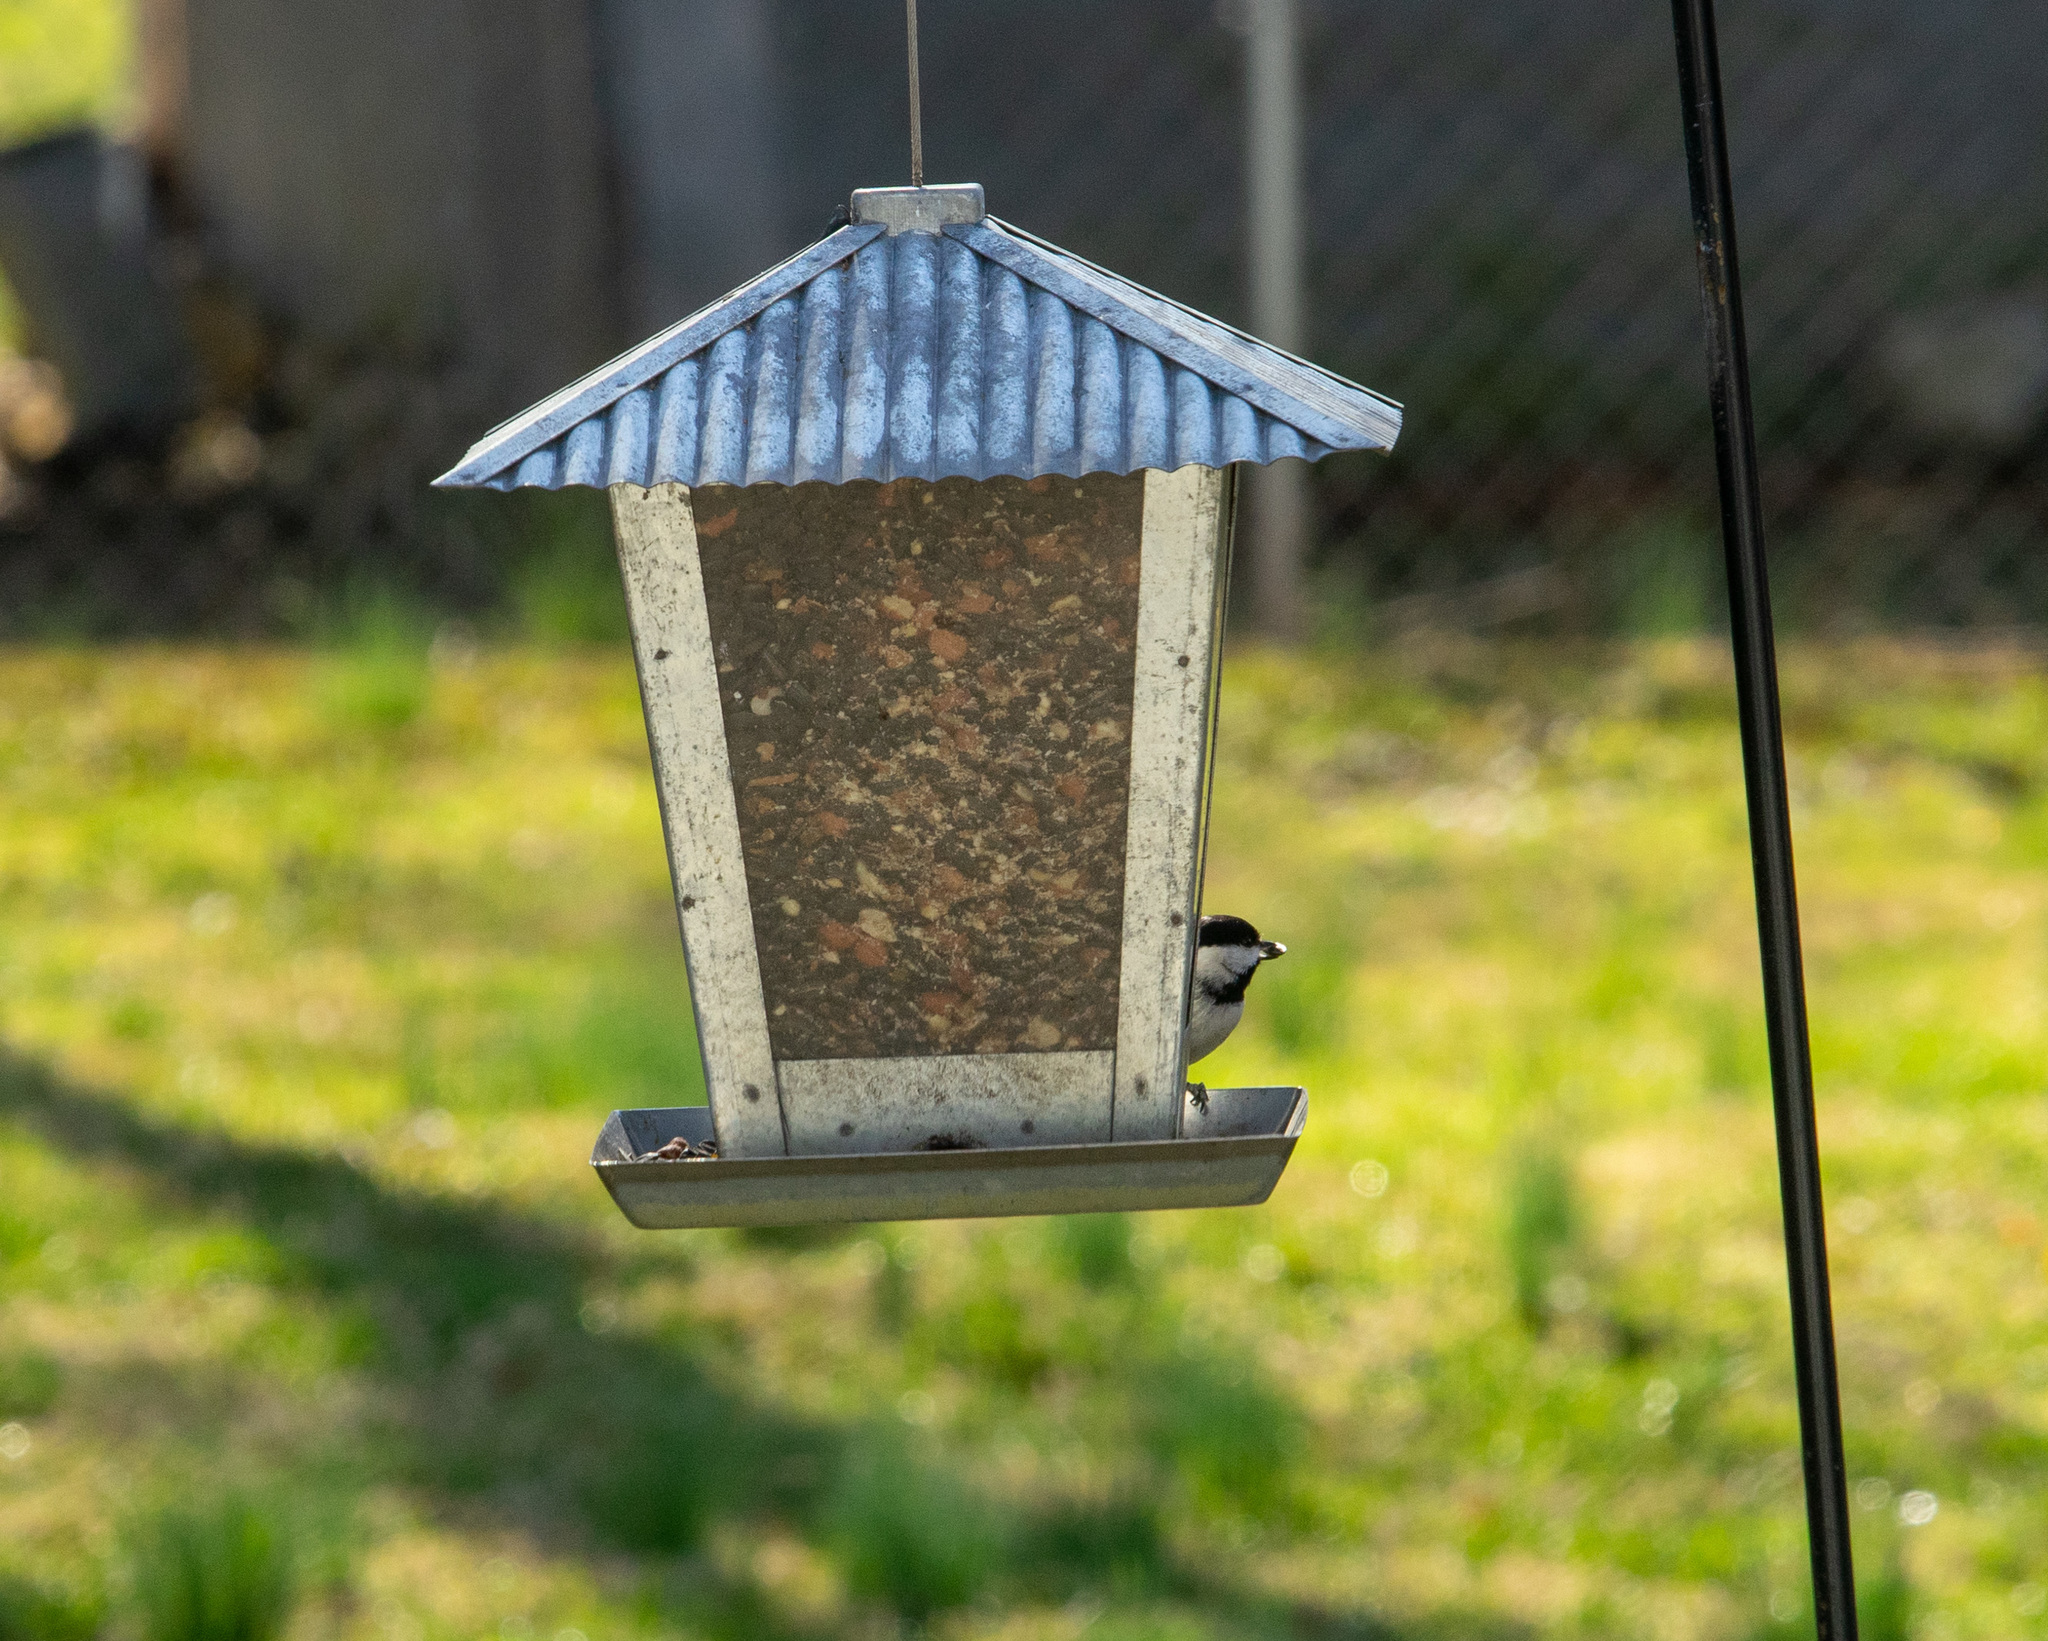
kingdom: Animalia
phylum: Chordata
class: Aves
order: Passeriformes
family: Paridae
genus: Poecile
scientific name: Poecile carolinensis
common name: Carolina chickadee
